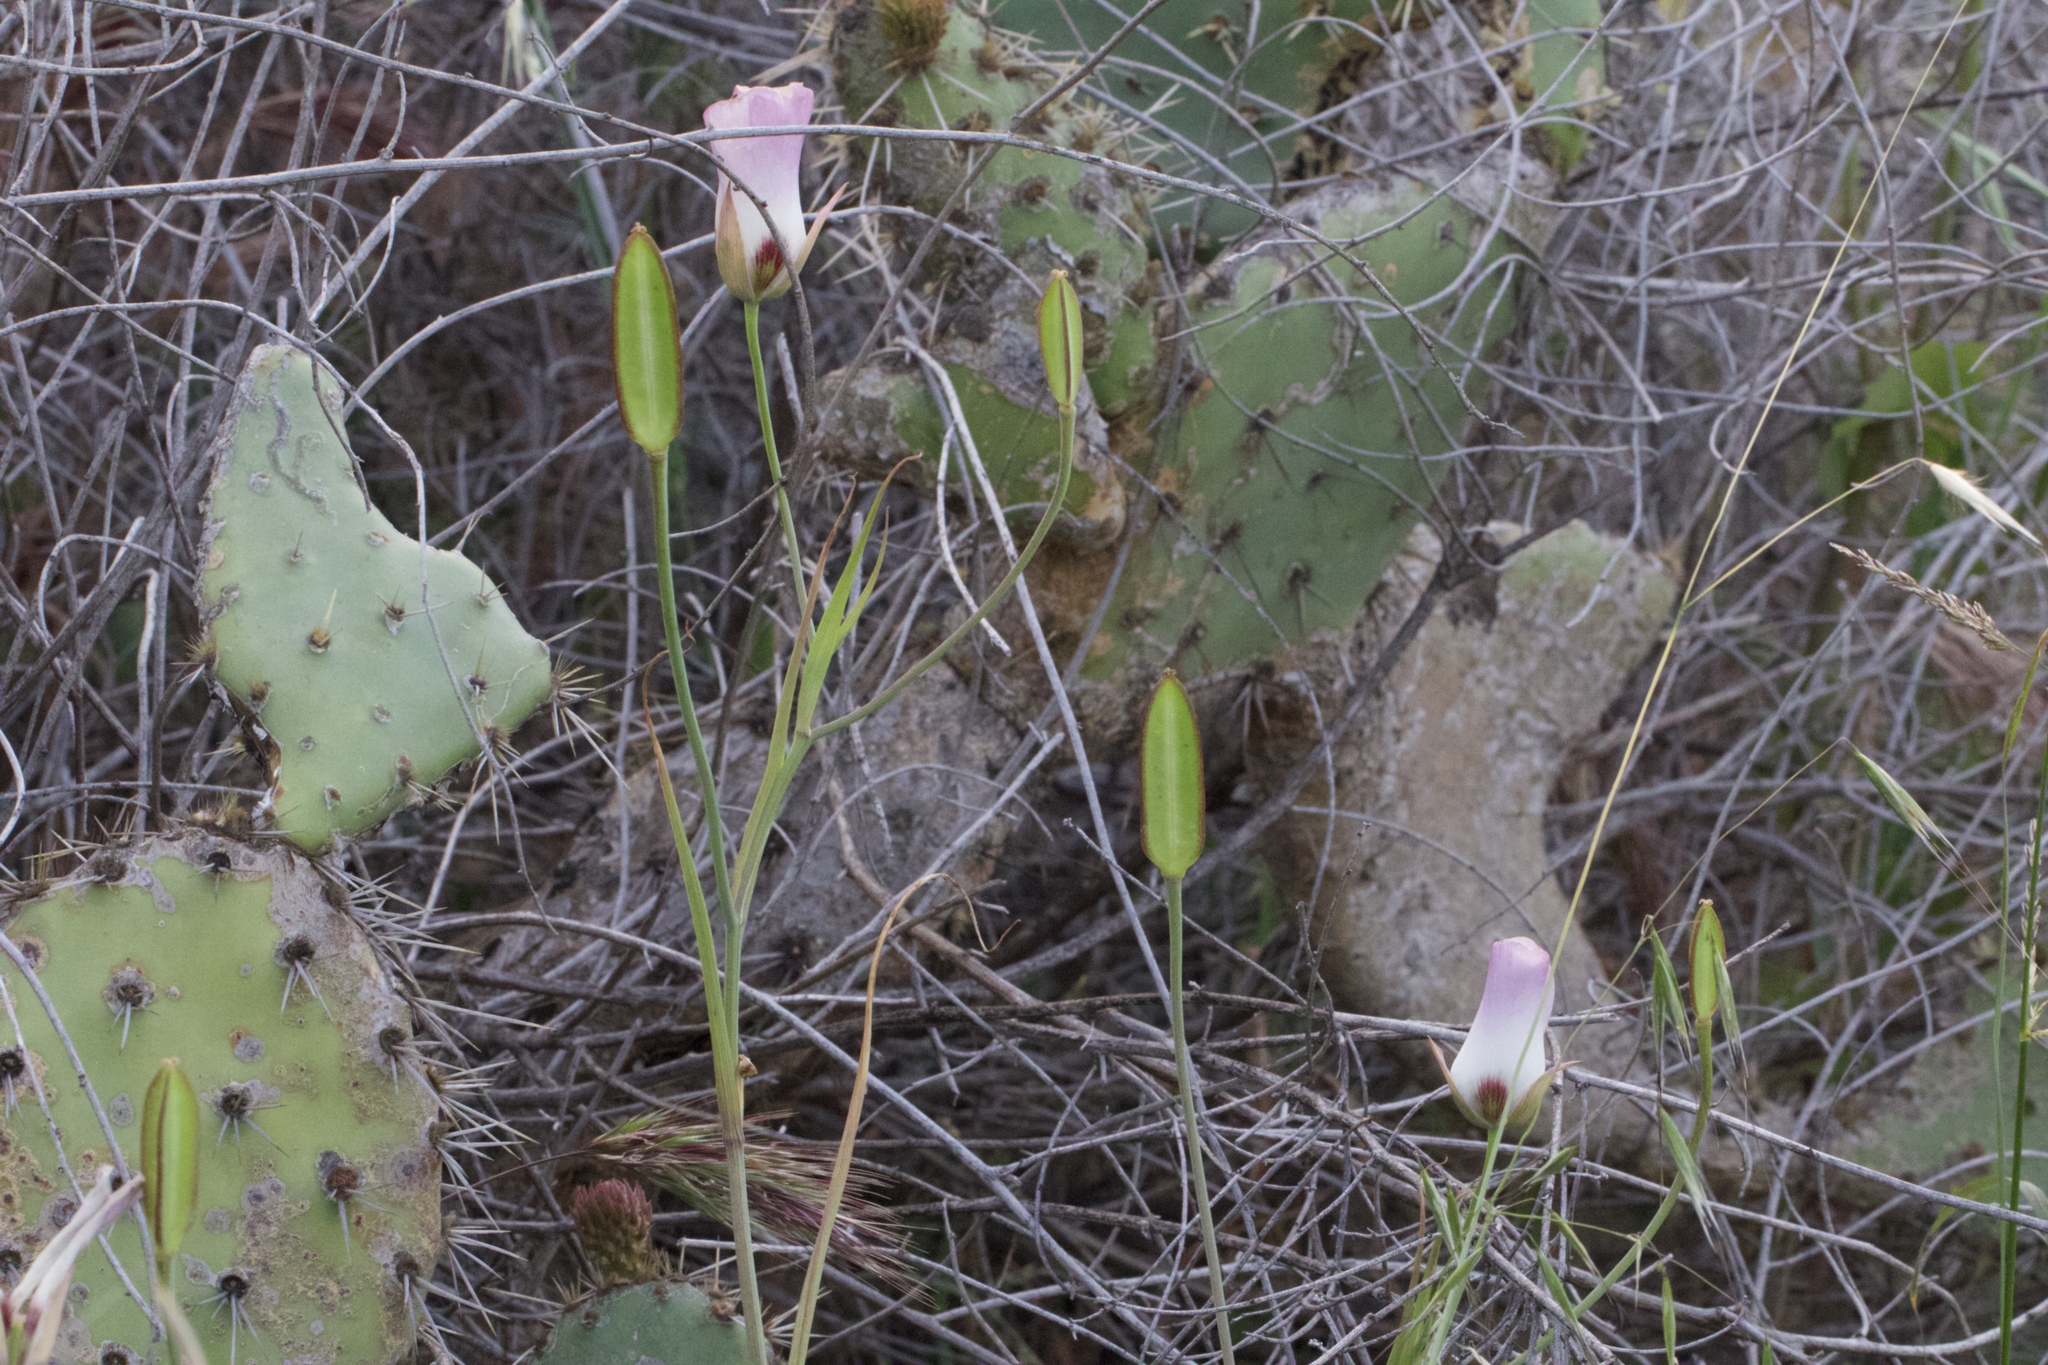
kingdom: Plantae
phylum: Tracheophyta
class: Liliopsida
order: Liliales
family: Liliaceae
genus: Calochortus
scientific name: Calochortus catalinae
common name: Catalina mariposa-lily
